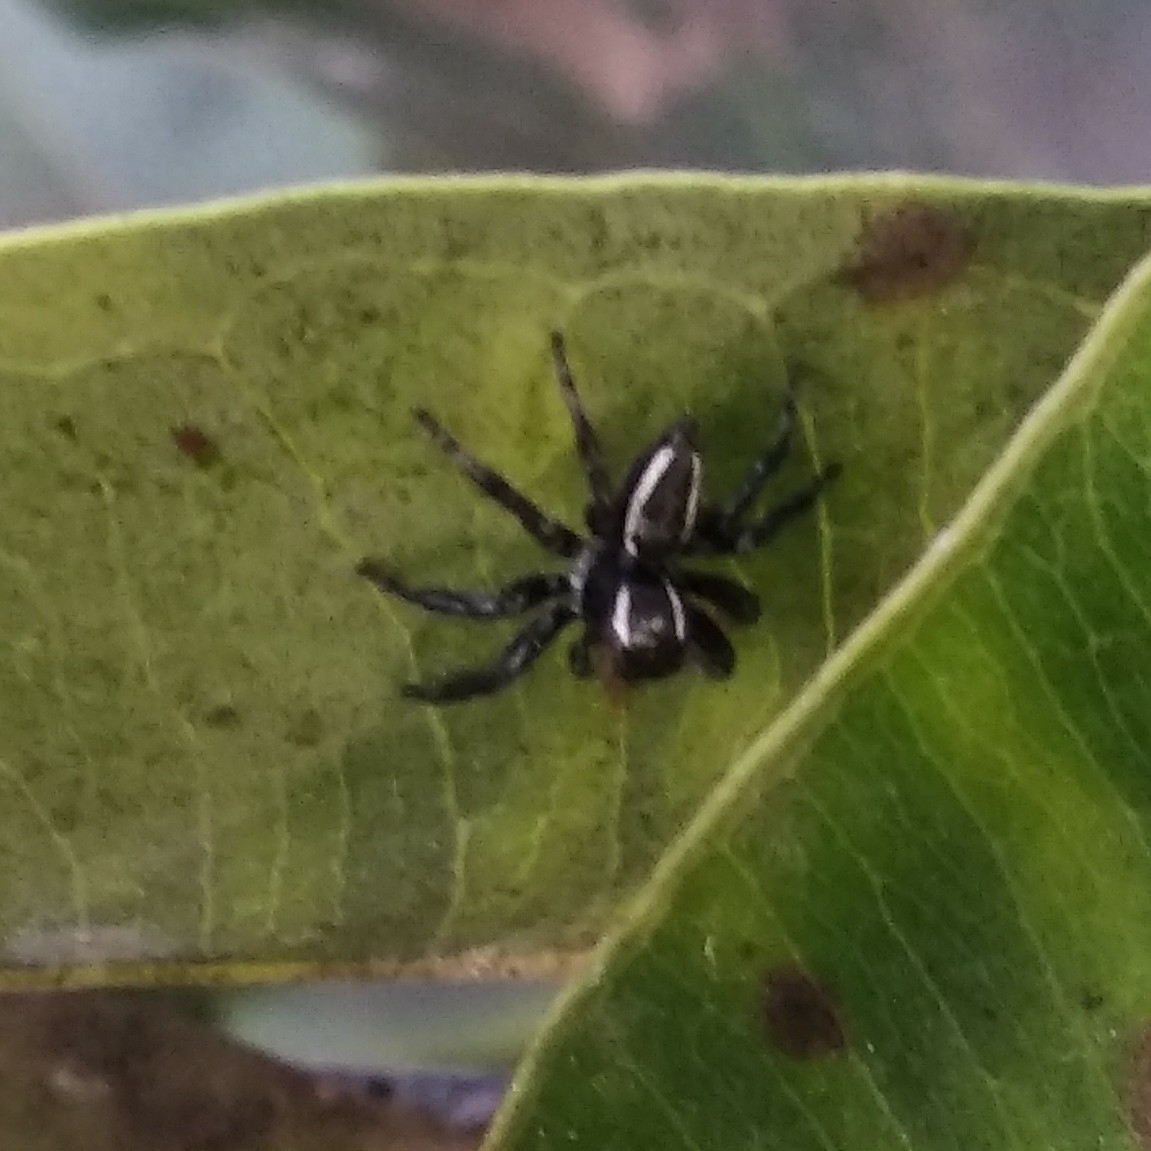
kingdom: Animalia
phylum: Arthropoda
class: Arachnida
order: Araneae
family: Salticidae
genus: Carrhotus
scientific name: Carrhotus viduus
